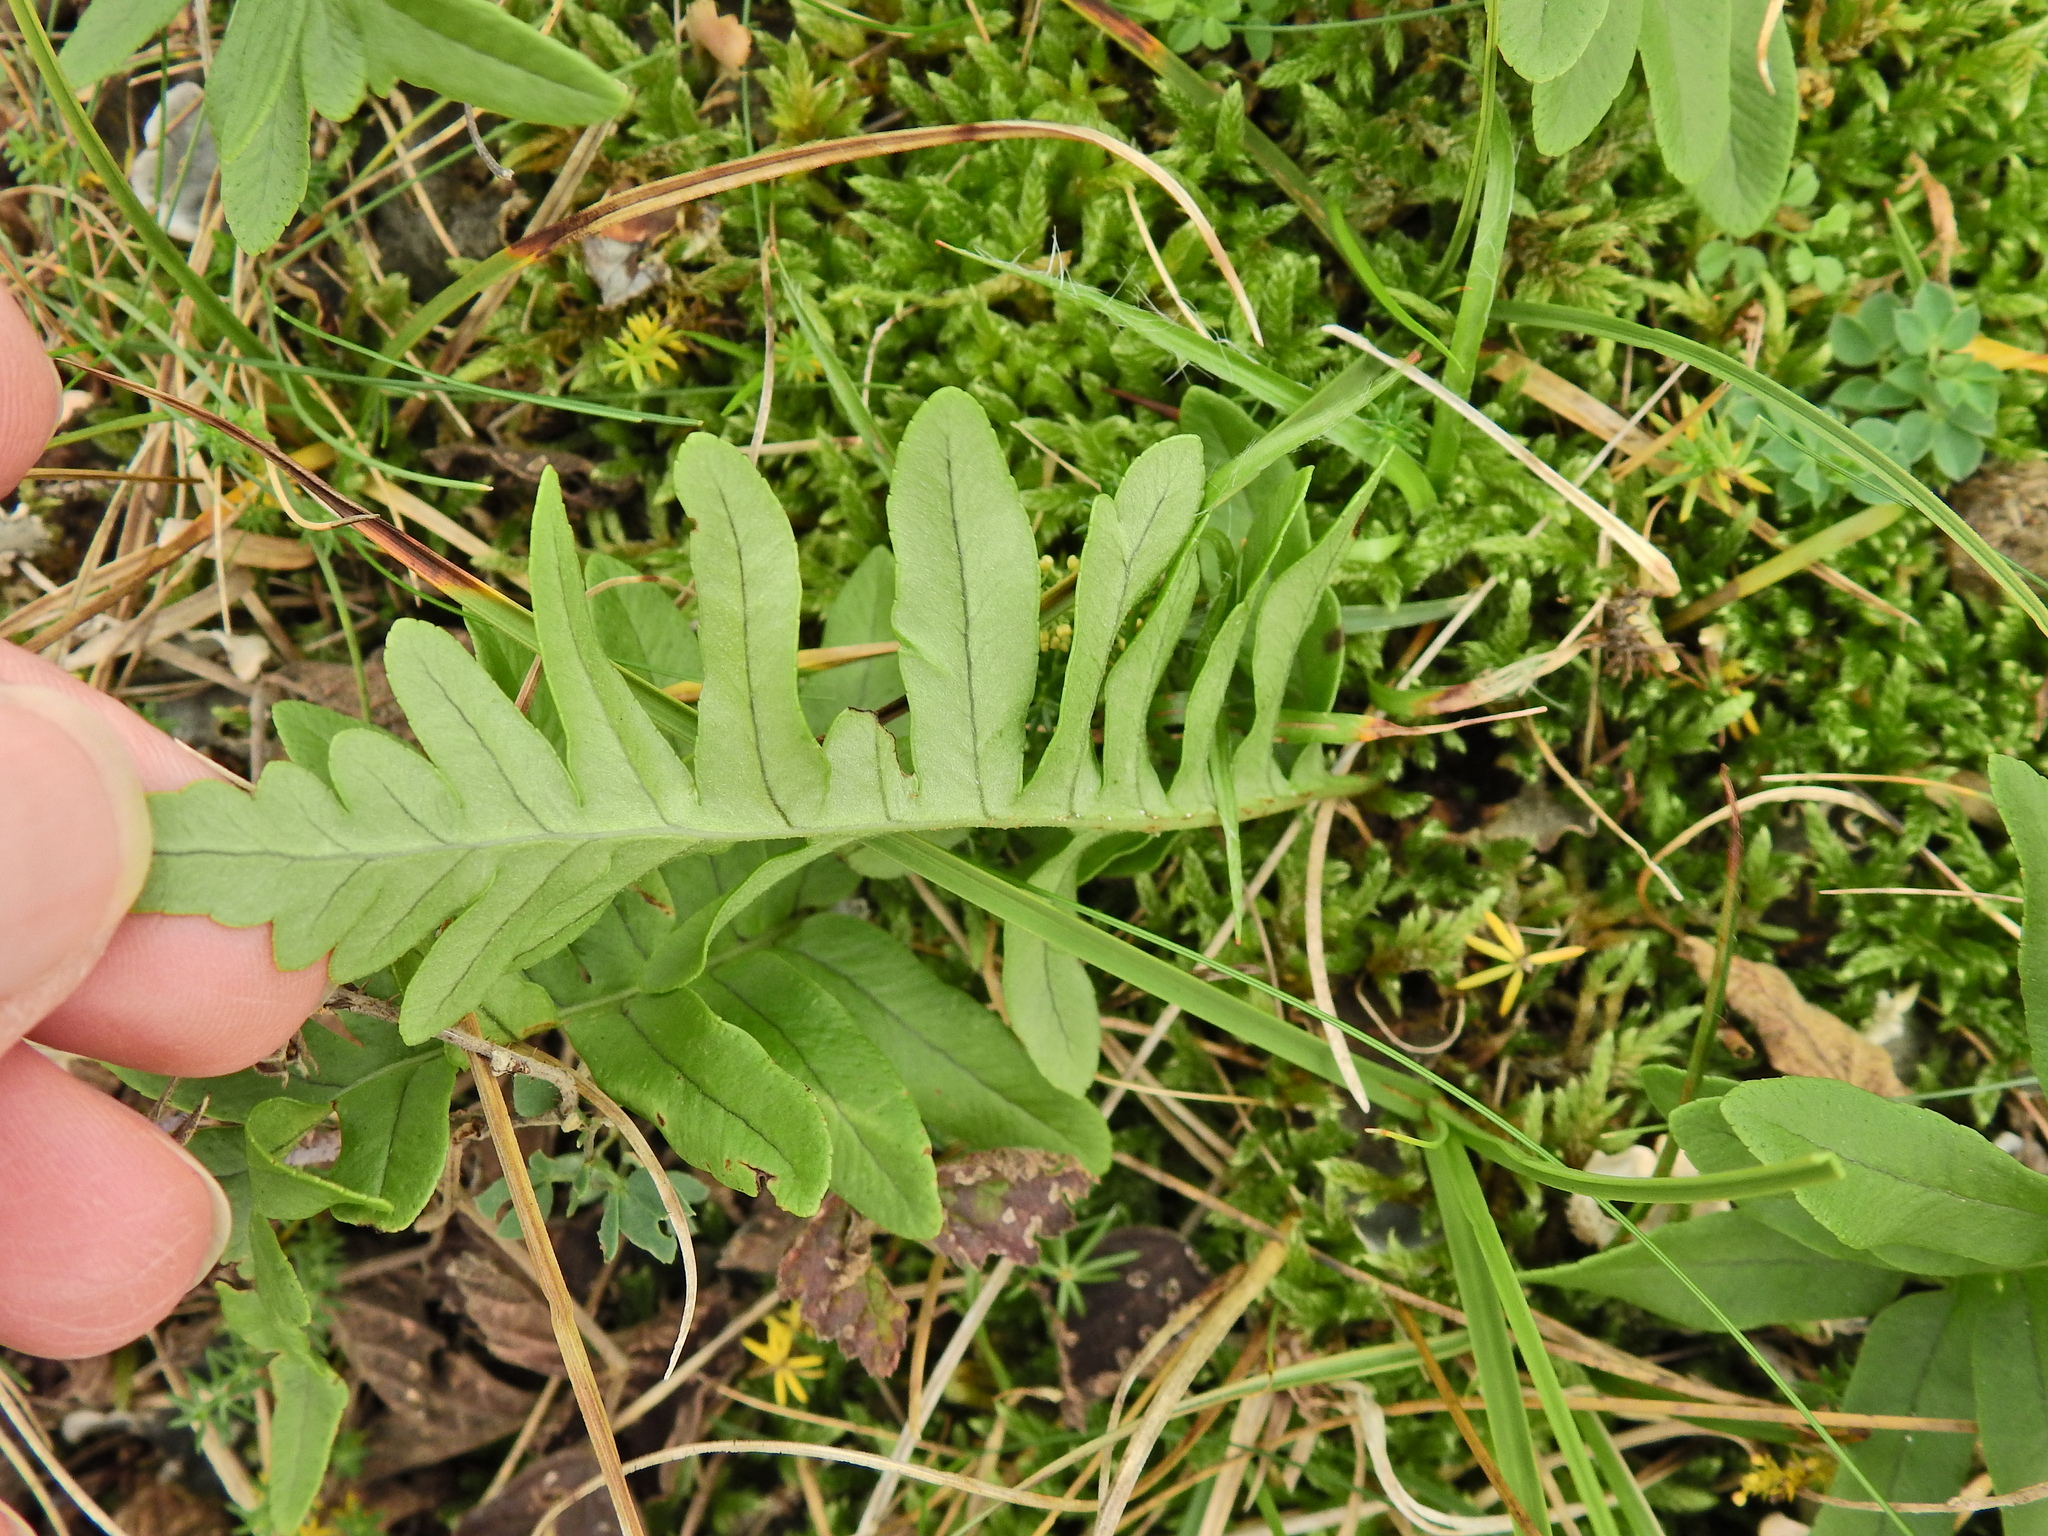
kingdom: Plantae
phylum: Tracheophyta
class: Polypodiopsida
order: Polypodiales
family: Polypodiaceae
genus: Polypodium
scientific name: Polypodium
